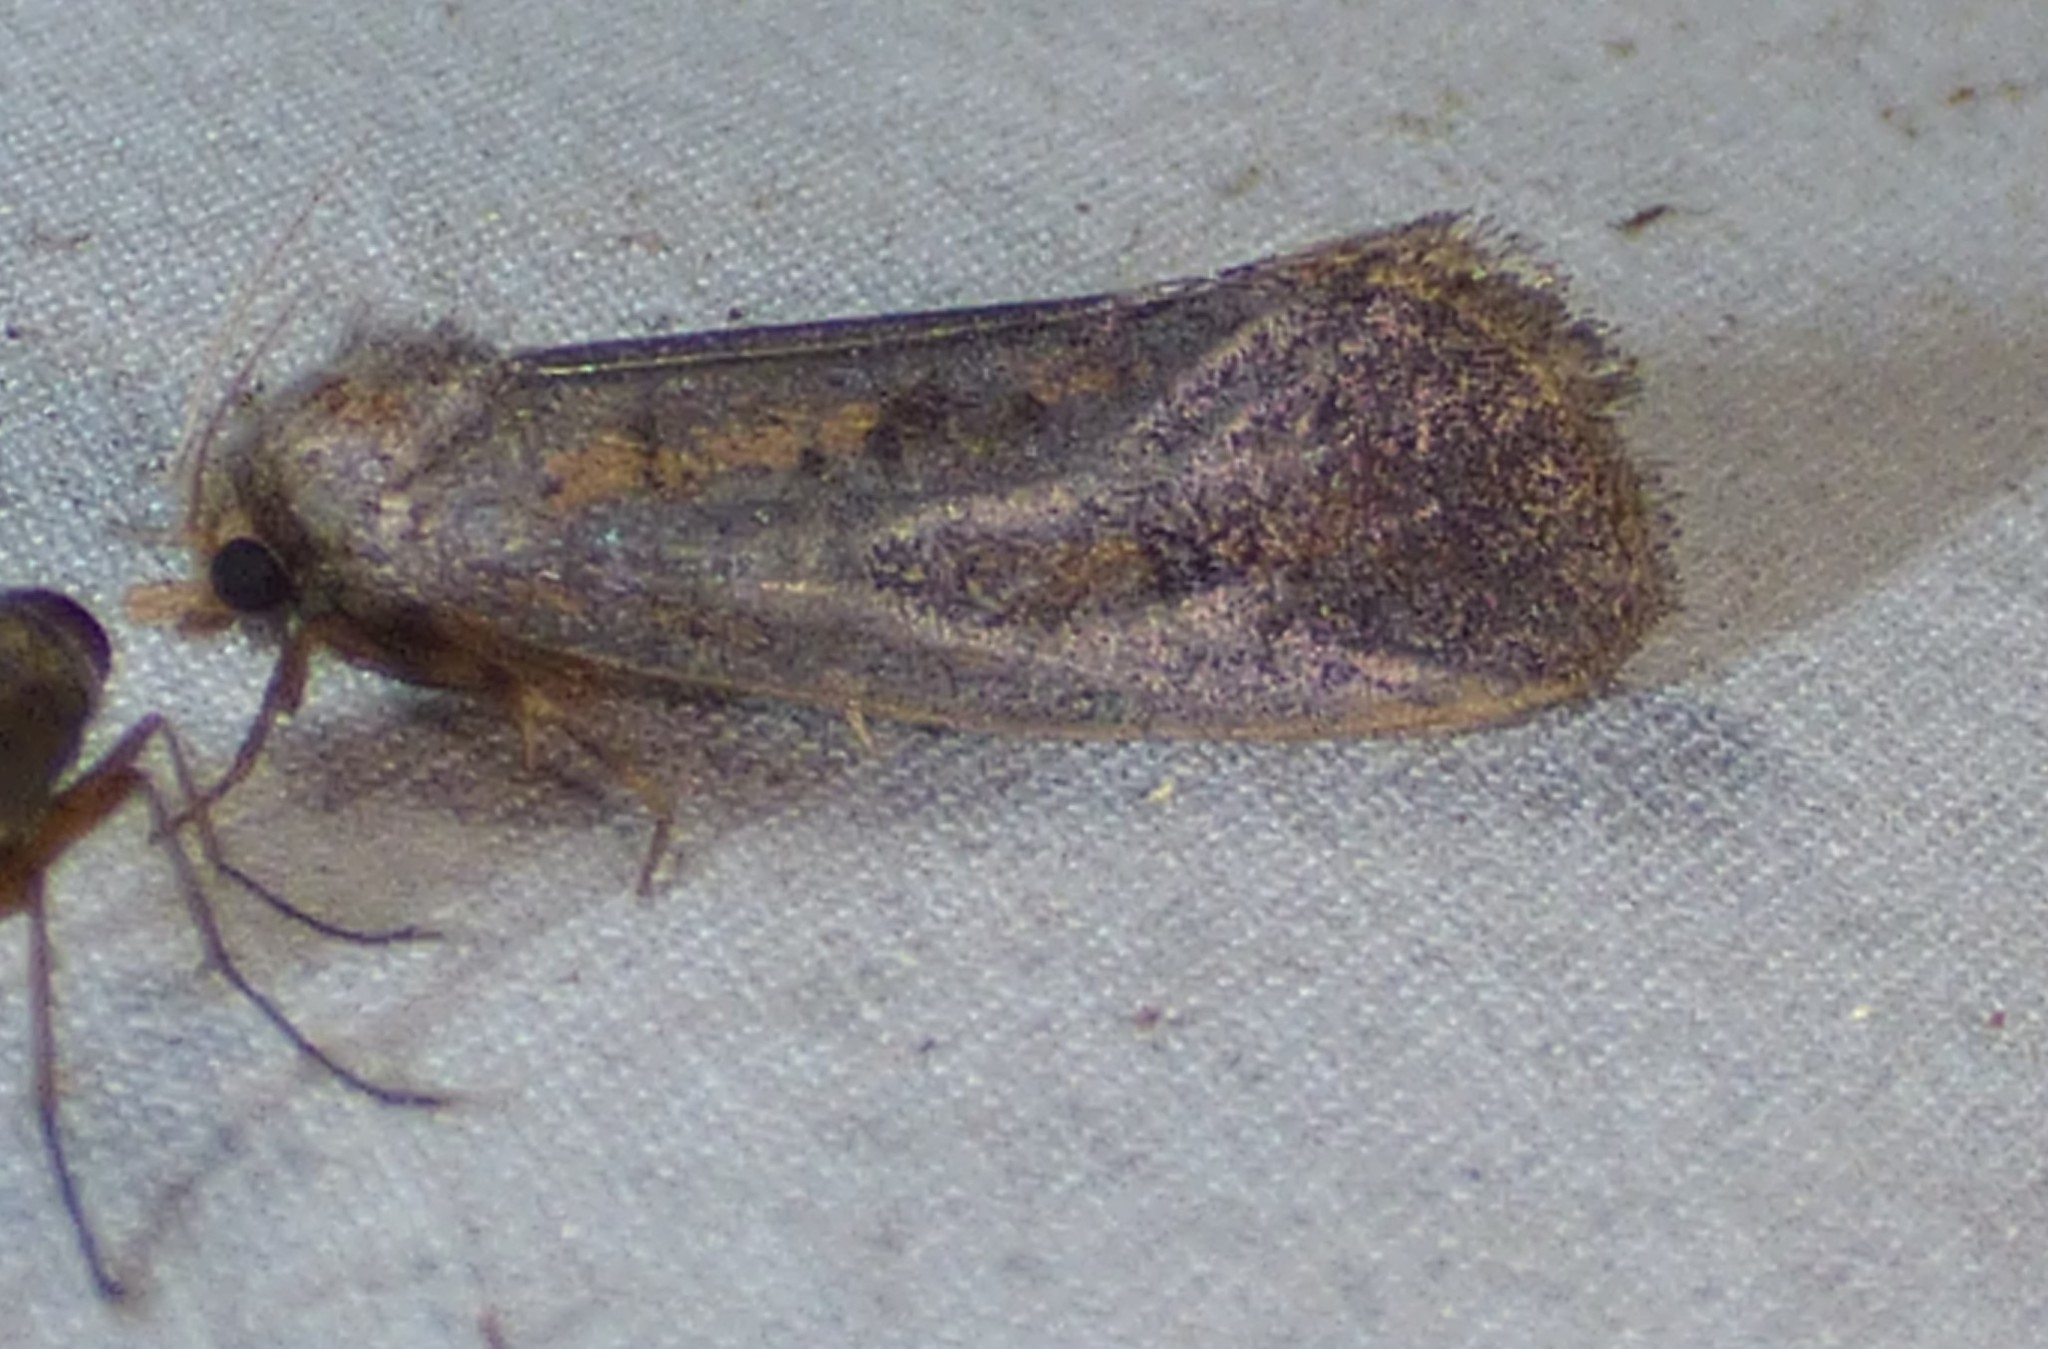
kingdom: Animalia
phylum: Arthropoda
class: Insecta
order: Lepidoptera
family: Tineidae
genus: Acrolophus
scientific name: Acrolophus popeanella
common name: Clemens' grass tubeworm moth
